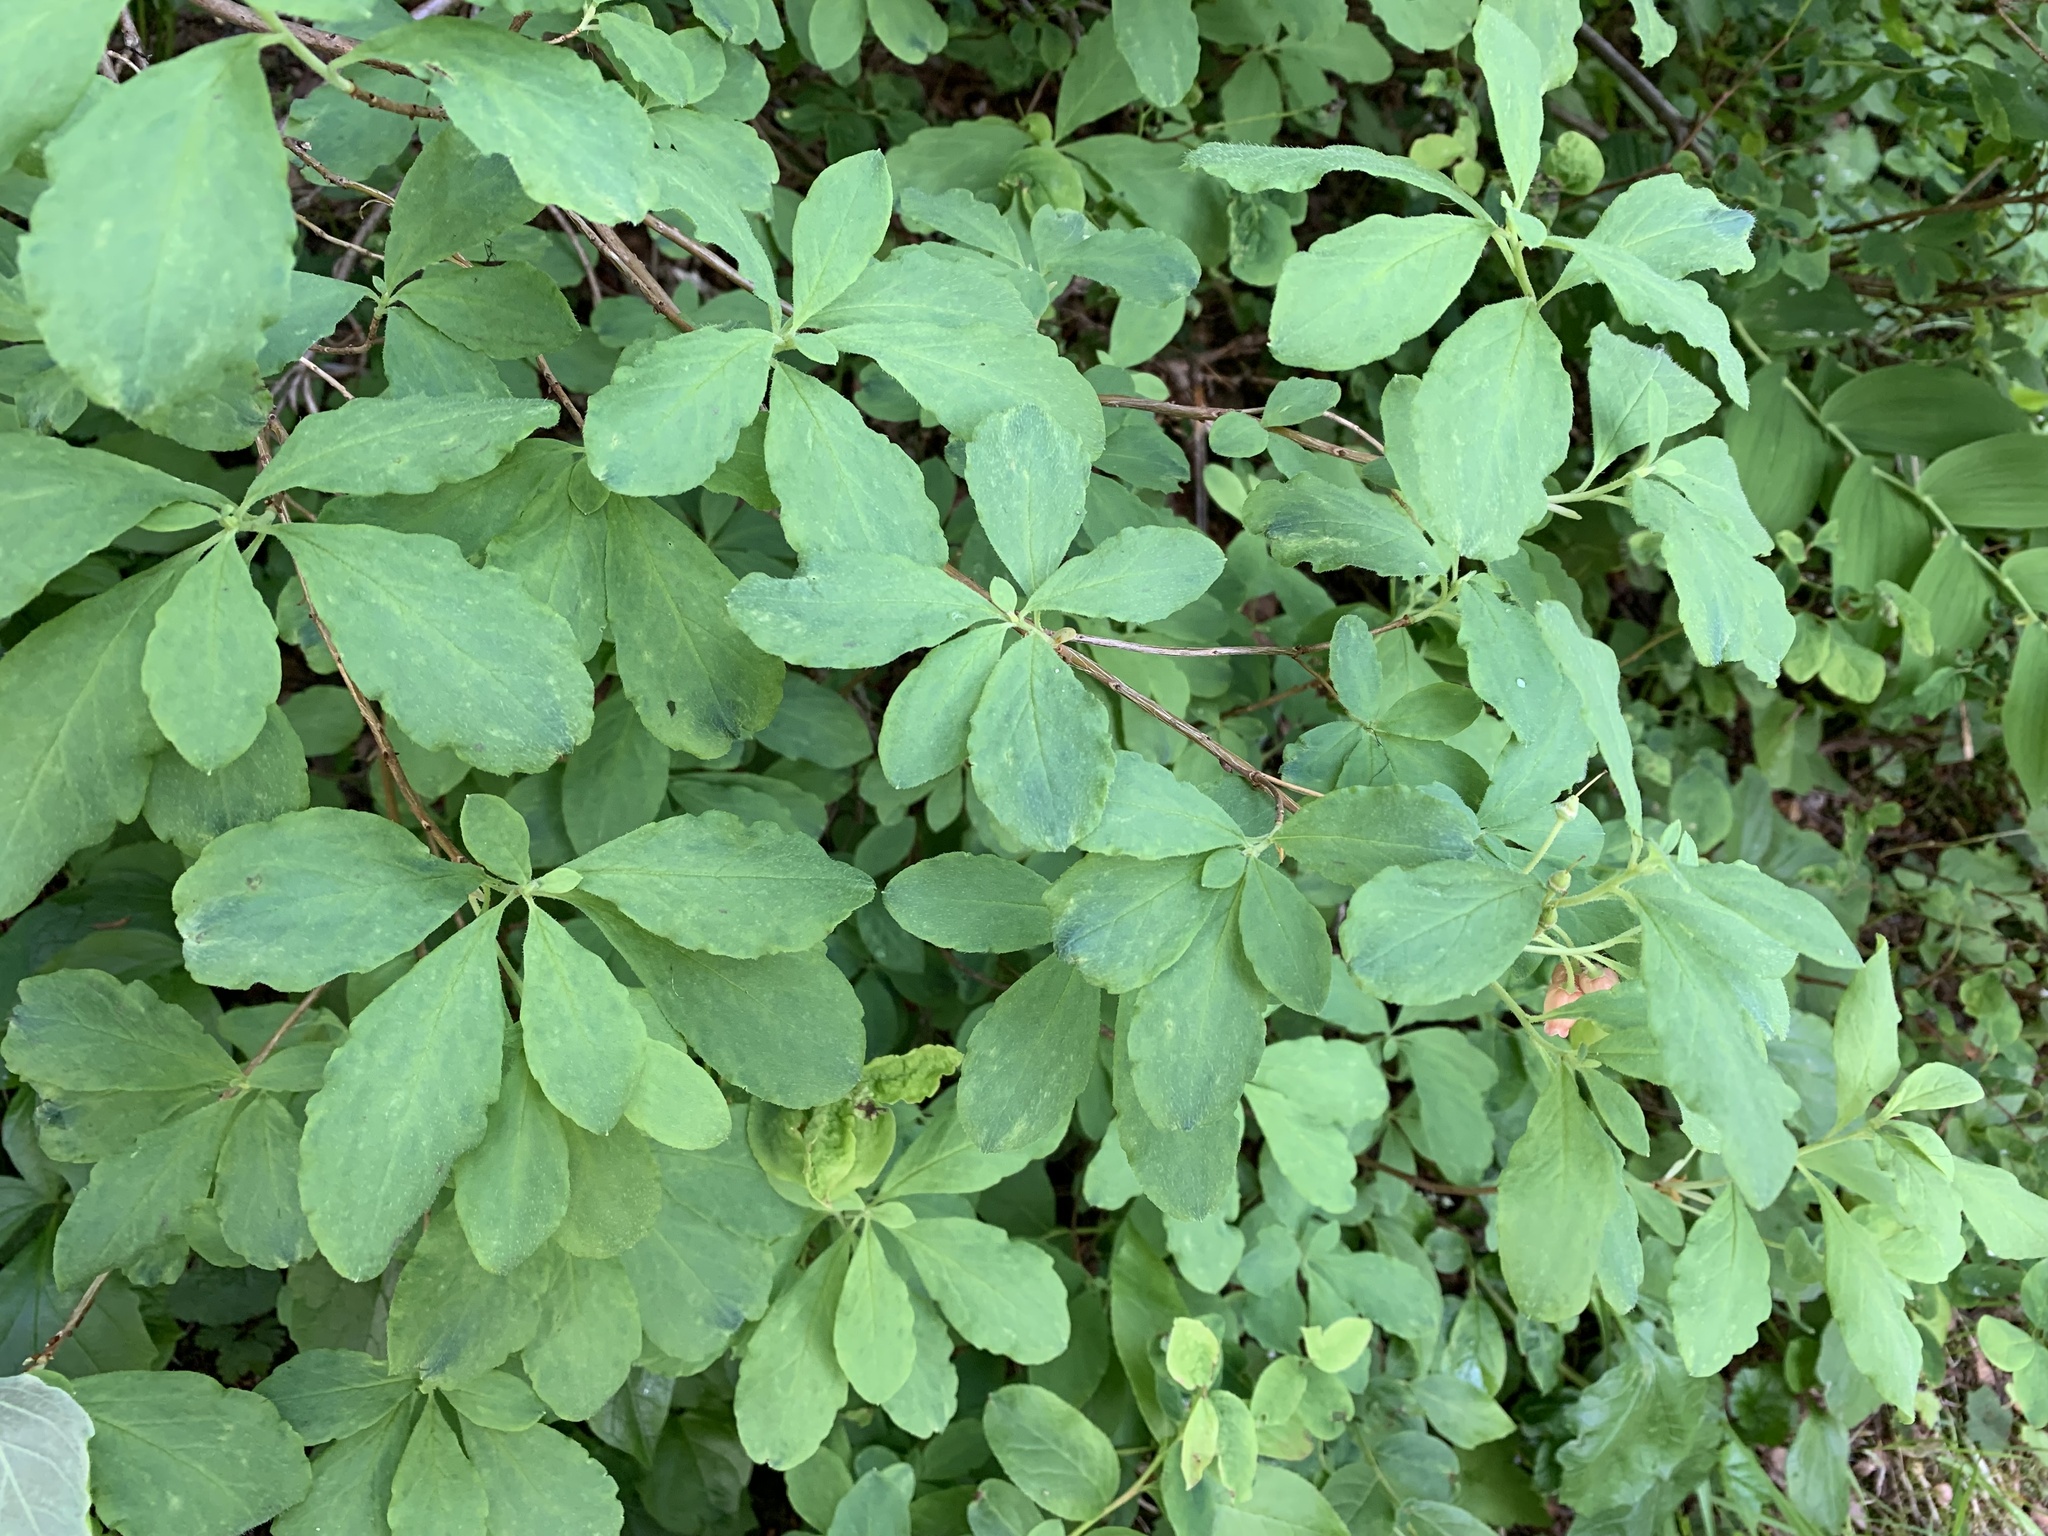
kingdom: Plantae
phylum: Tracheophyta
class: Magnoliopsida
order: Ericales
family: Ericaceae
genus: Rhododendron
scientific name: Rhododendron menziesii
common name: Pacific menziesia
